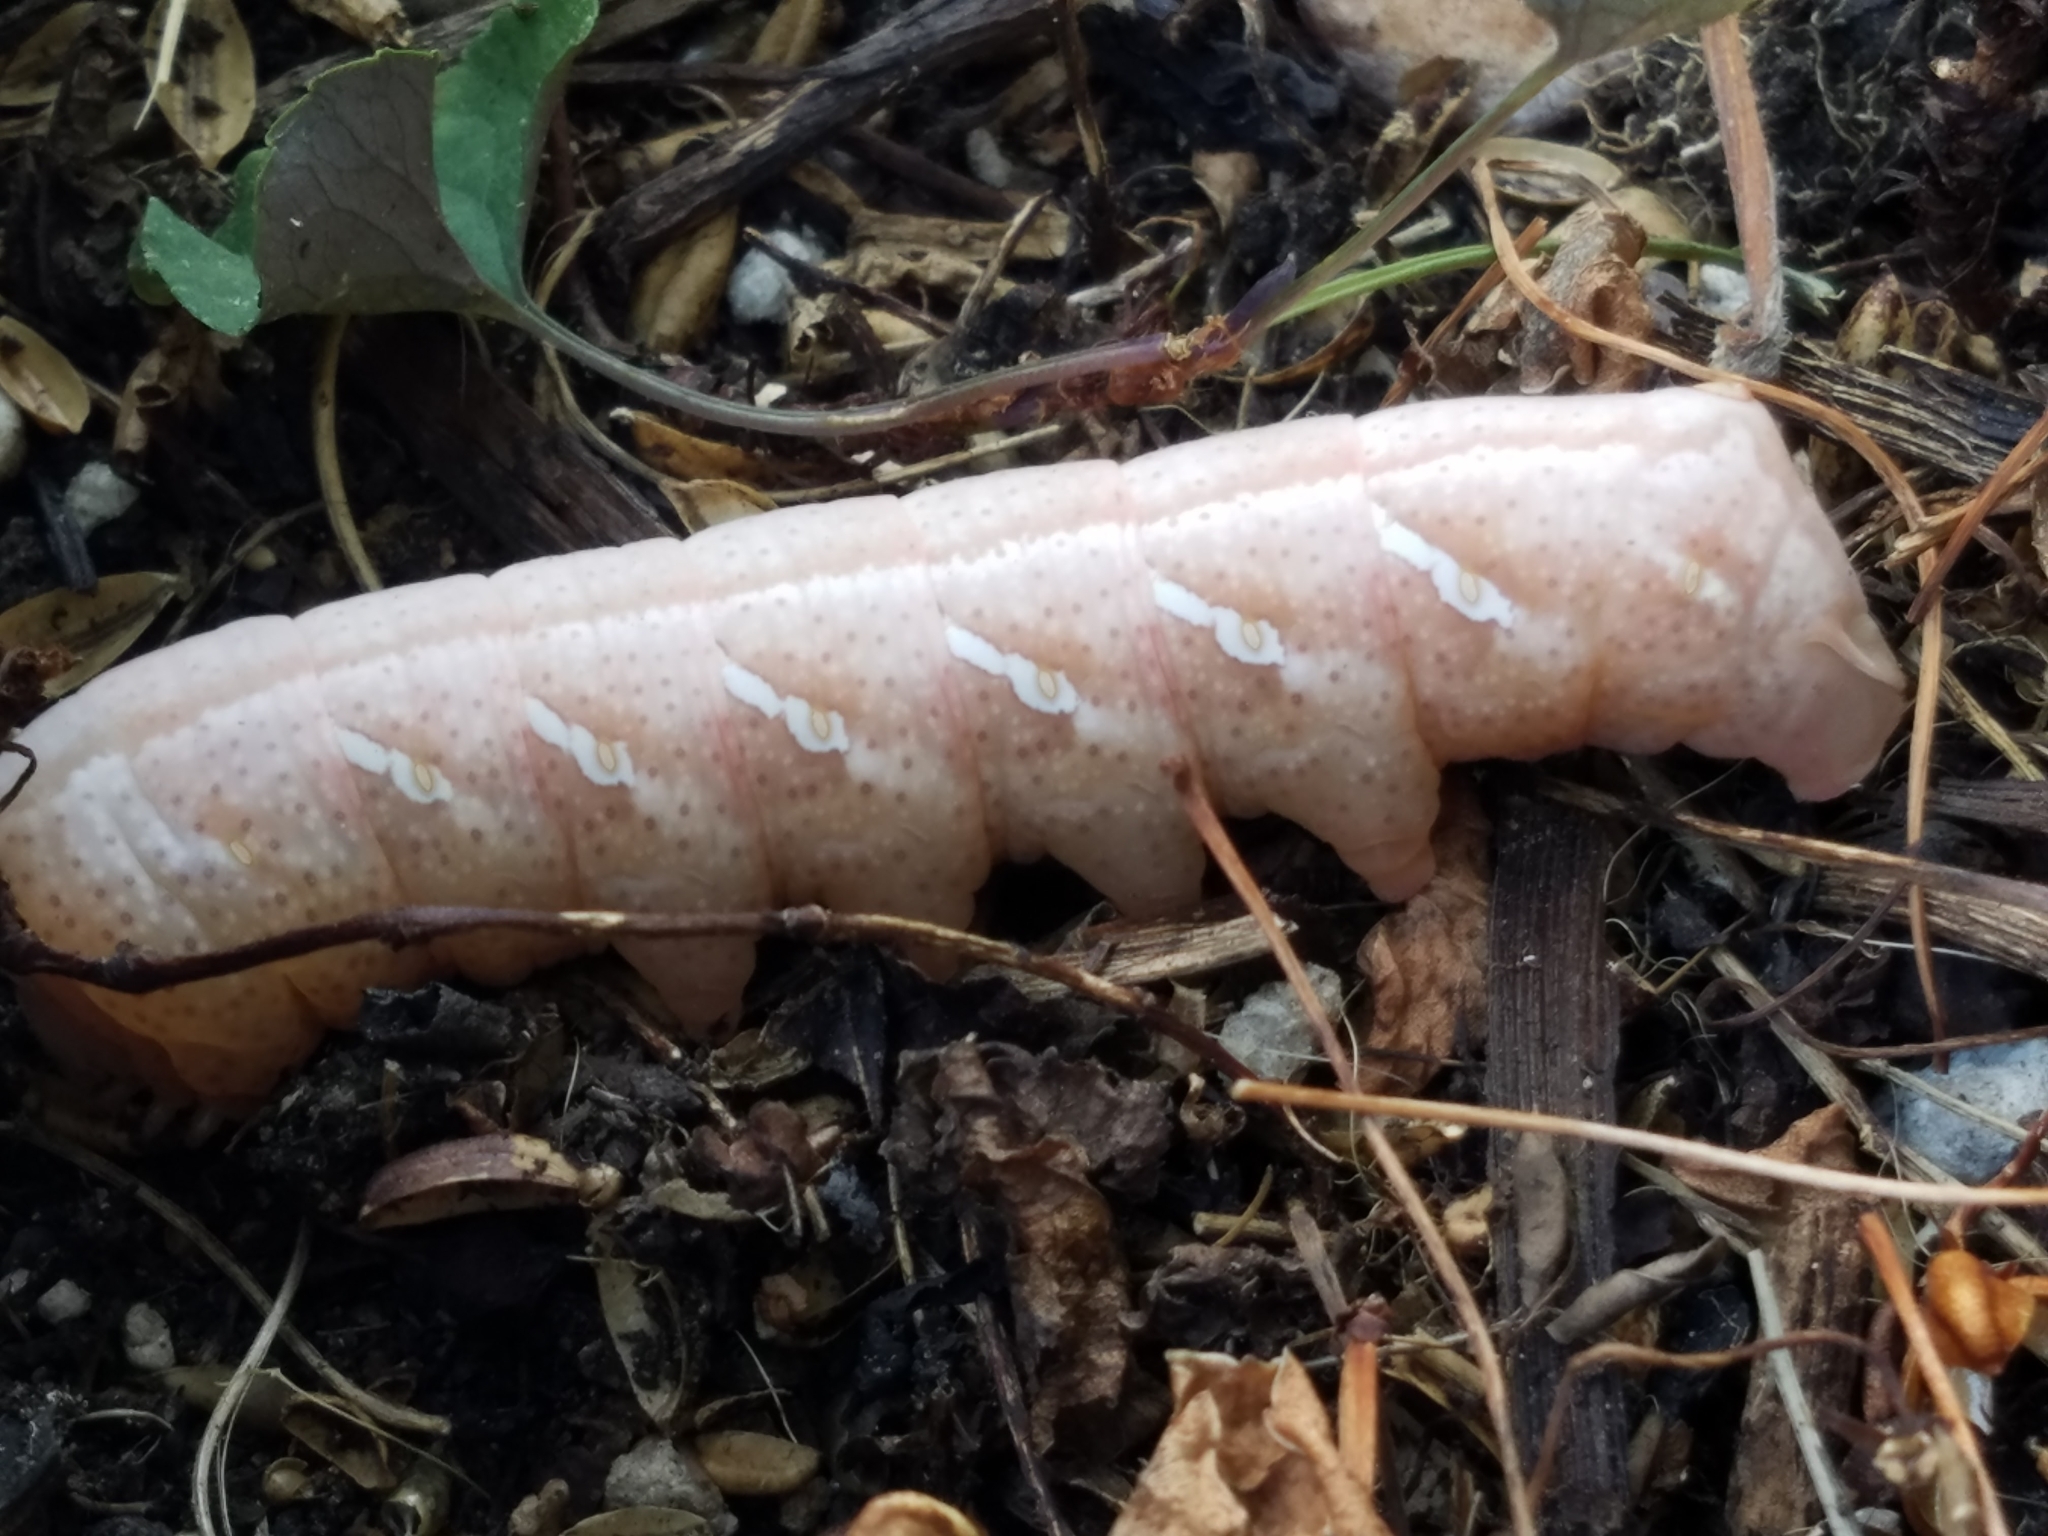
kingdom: Animalia
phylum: Arthropoda
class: Insecta
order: Lepidoptera
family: Sphingidae
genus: Eumorpha
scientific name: Eumorpha achemon
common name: Achemon sphinx
